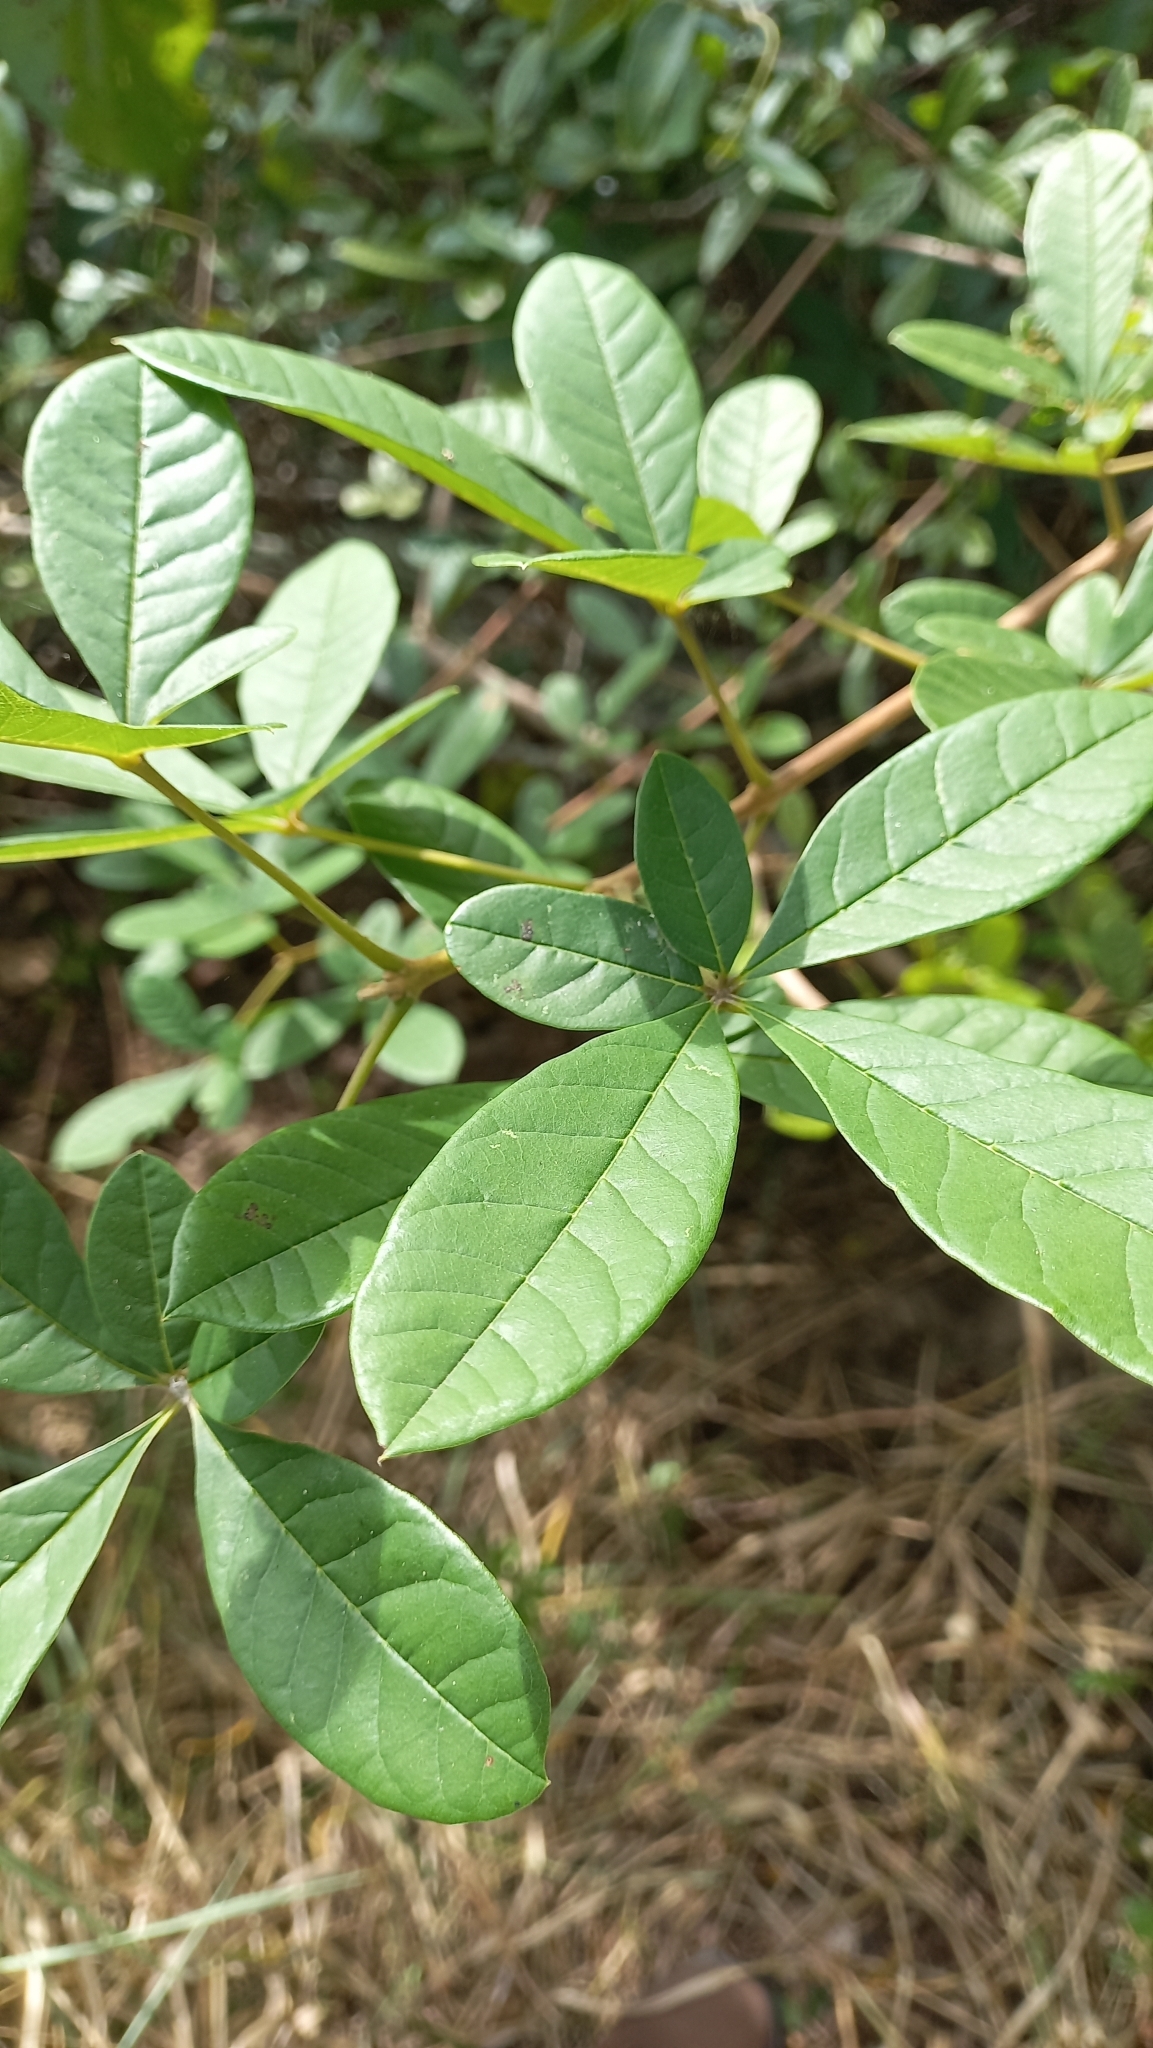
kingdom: Plantae
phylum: Tracheophyta
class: Magnoliopsida
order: Lamiales
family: Lamiaceae
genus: Vitex
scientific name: Vitex megapotamica
